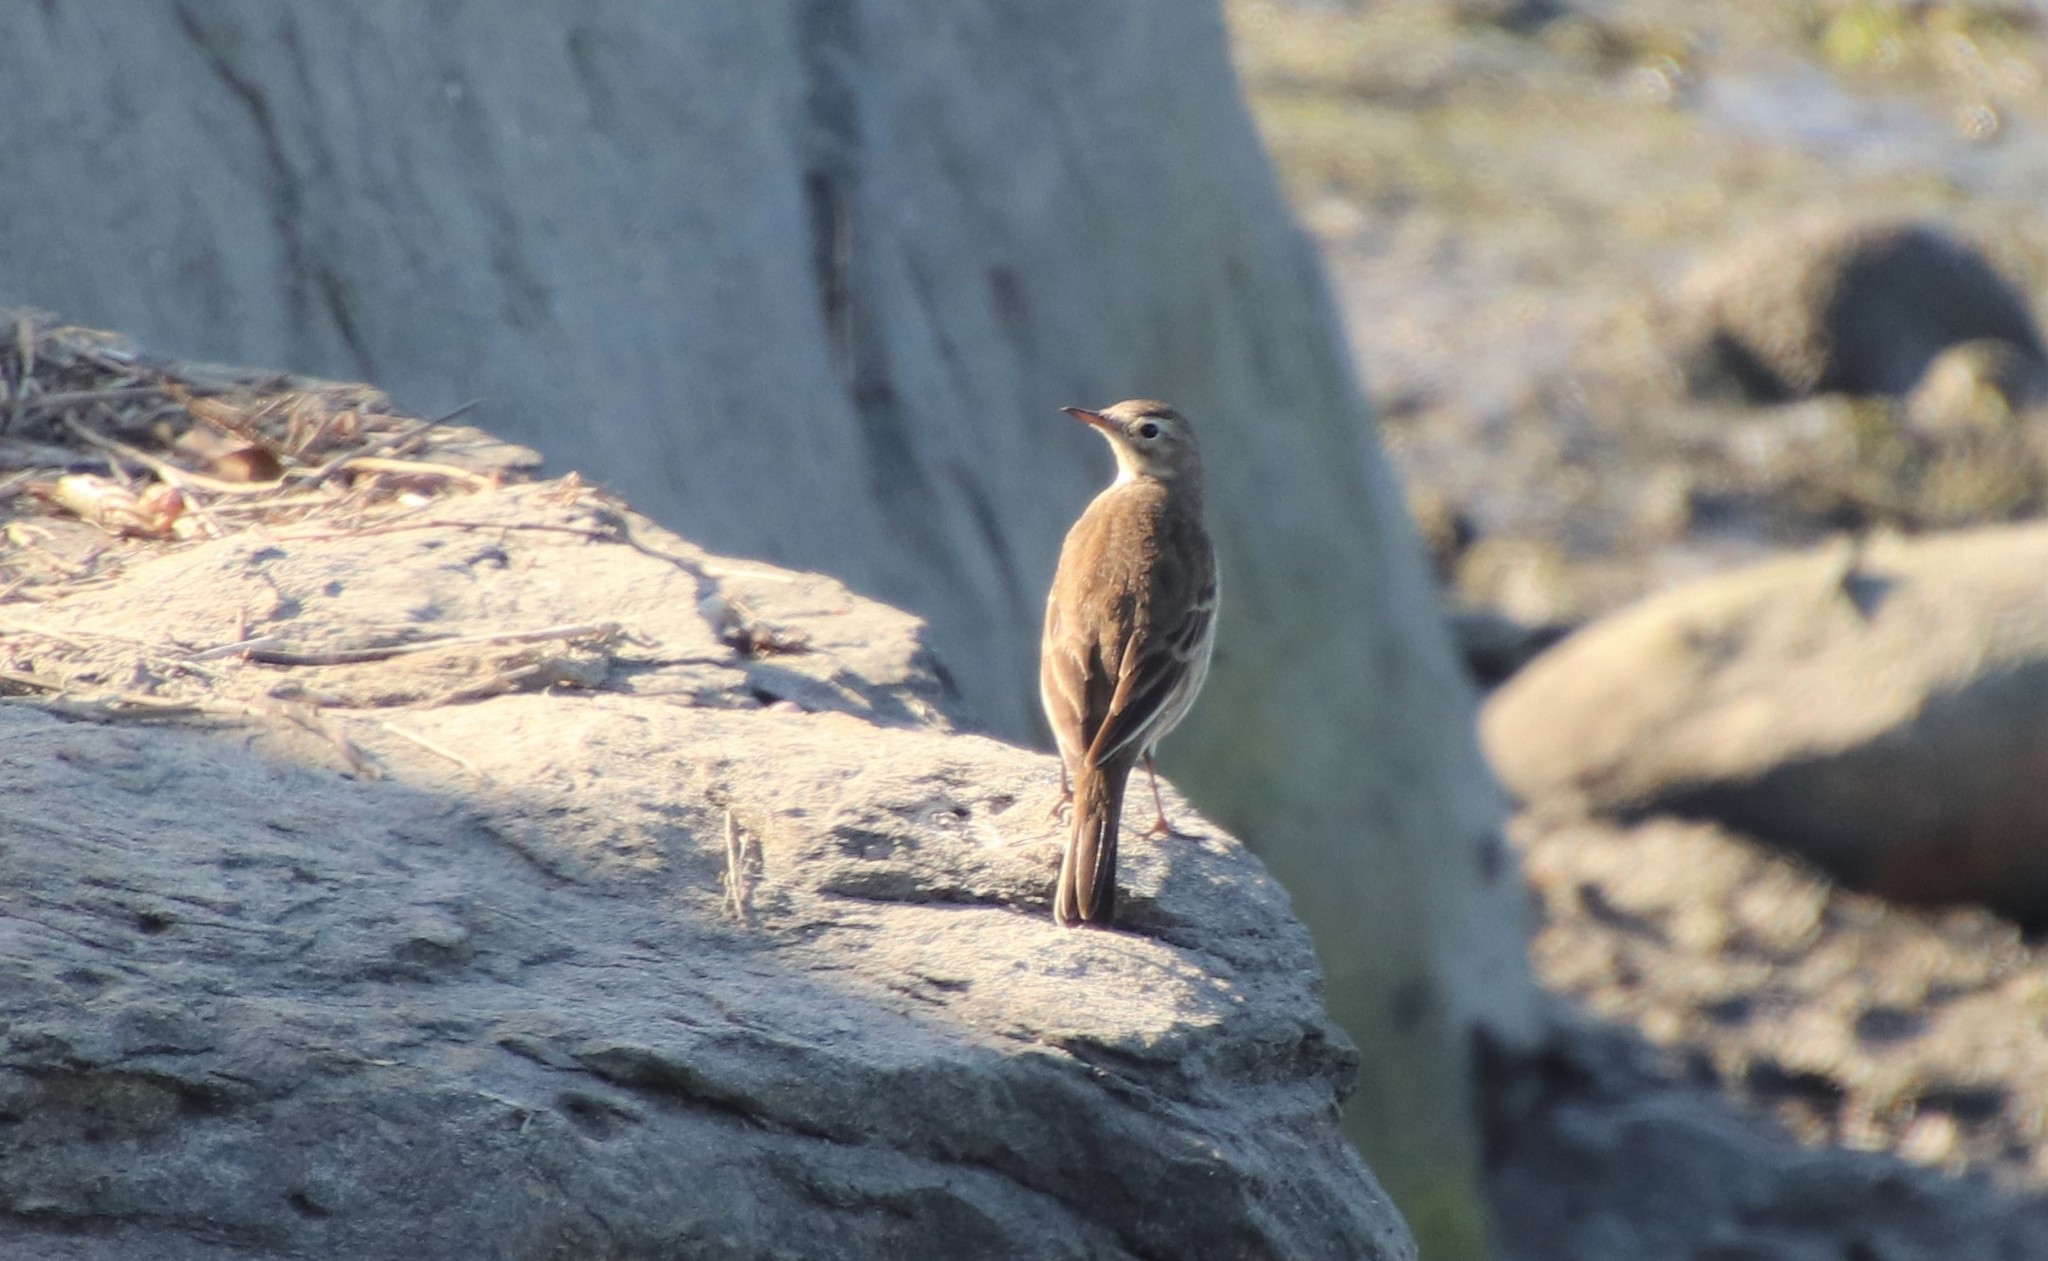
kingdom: Animalia
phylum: Chordata
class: Aves
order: Passeriformes
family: Motacillidae
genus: Anthus
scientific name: Anthus rubescens
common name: Buff-bellied pipit
